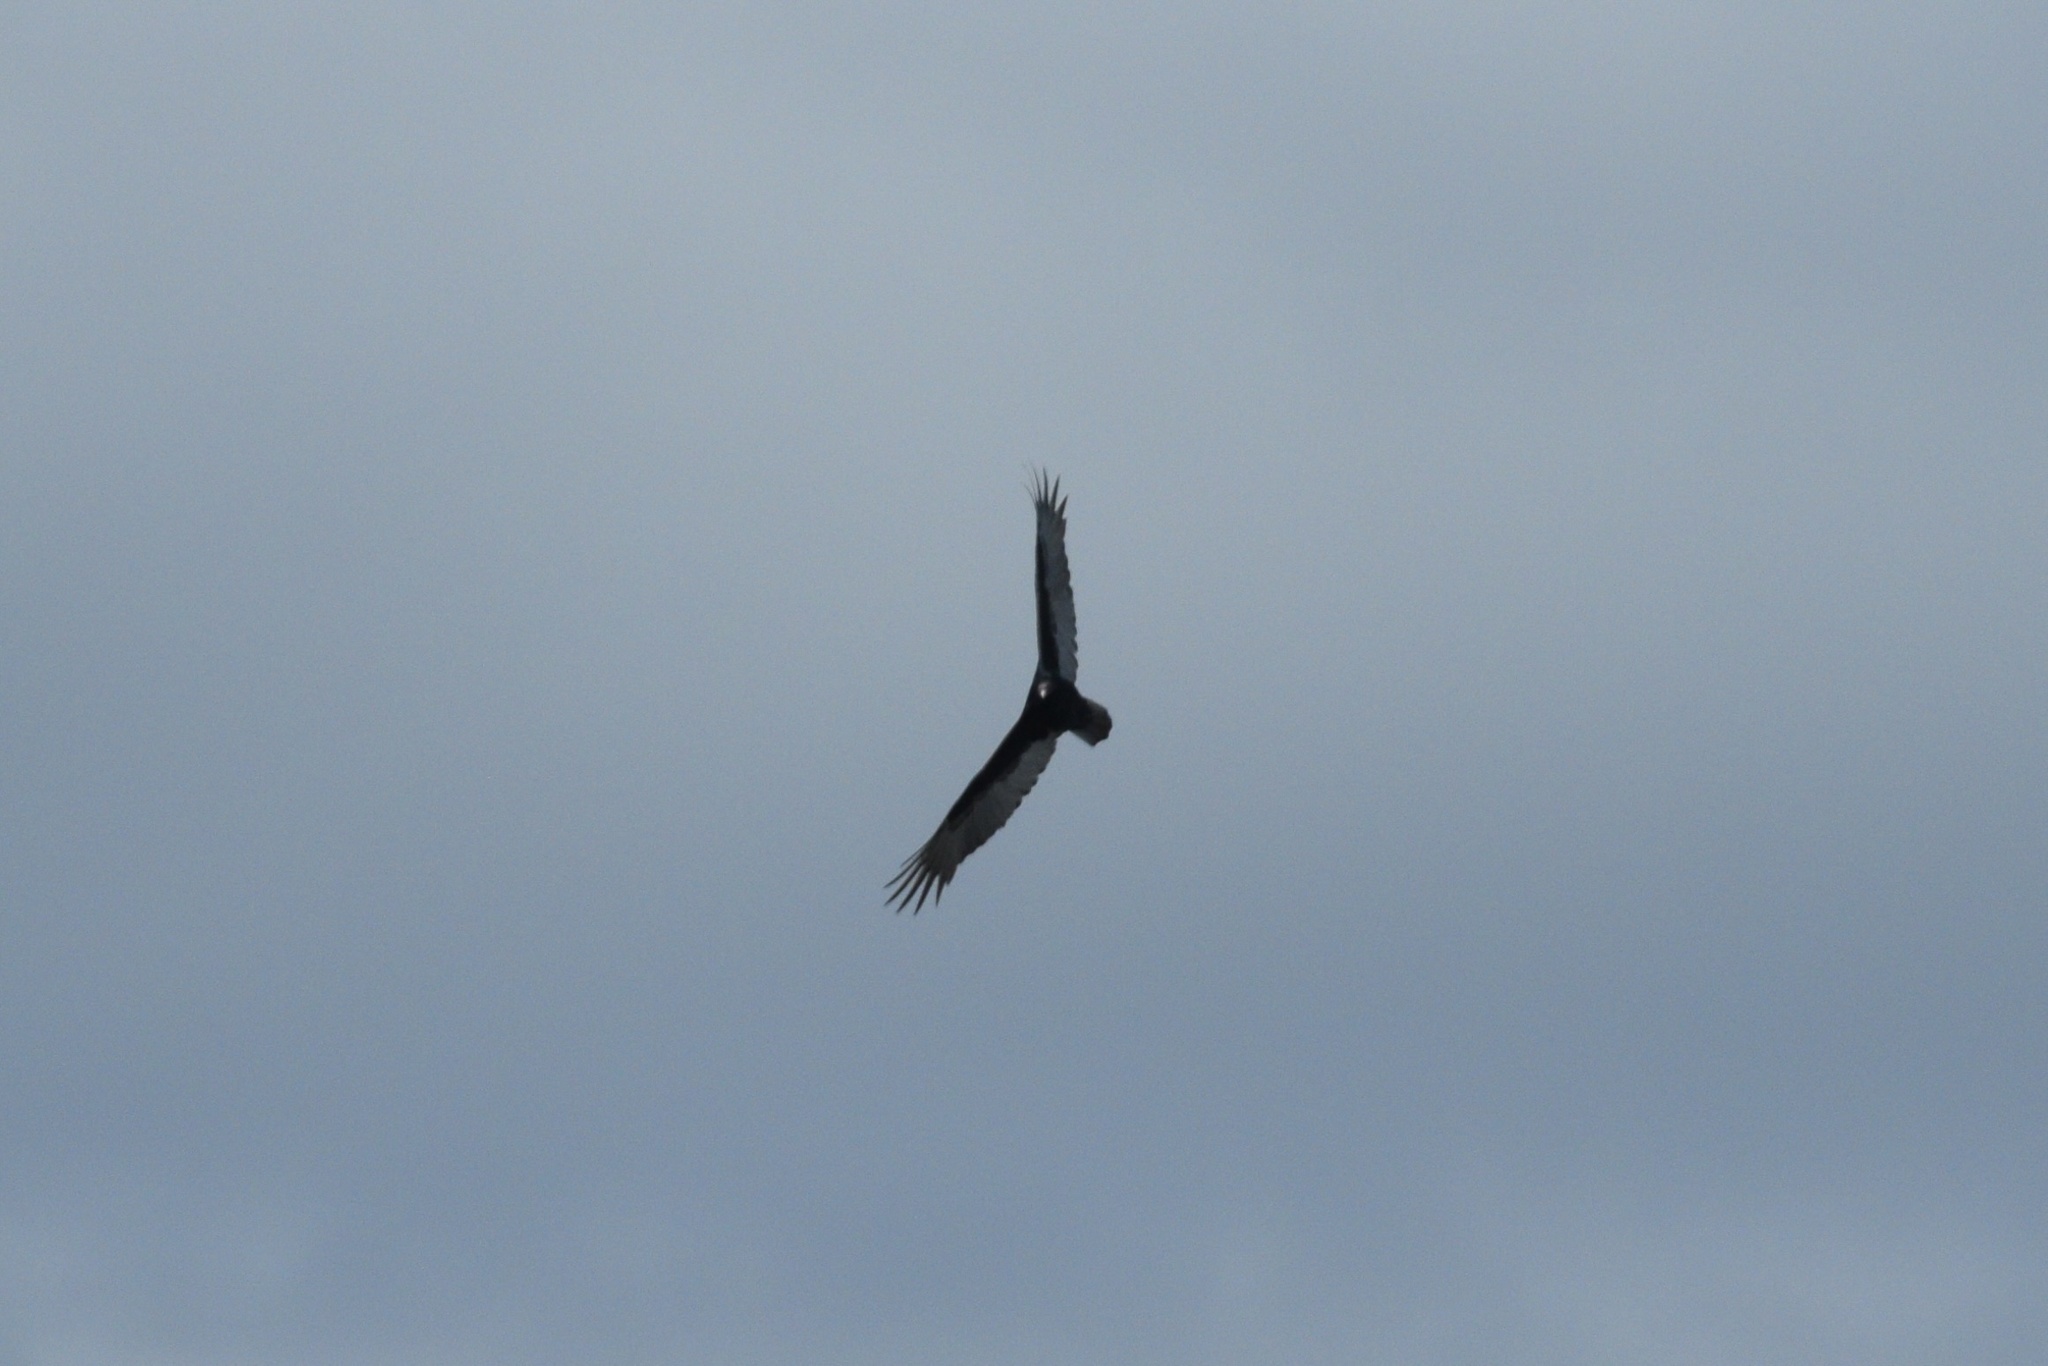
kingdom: Animalia
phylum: Chordata
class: Aves
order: Accipitriformes
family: Cathartidae
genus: Cathartes
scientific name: Cathartes aura
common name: Turkey vulture
